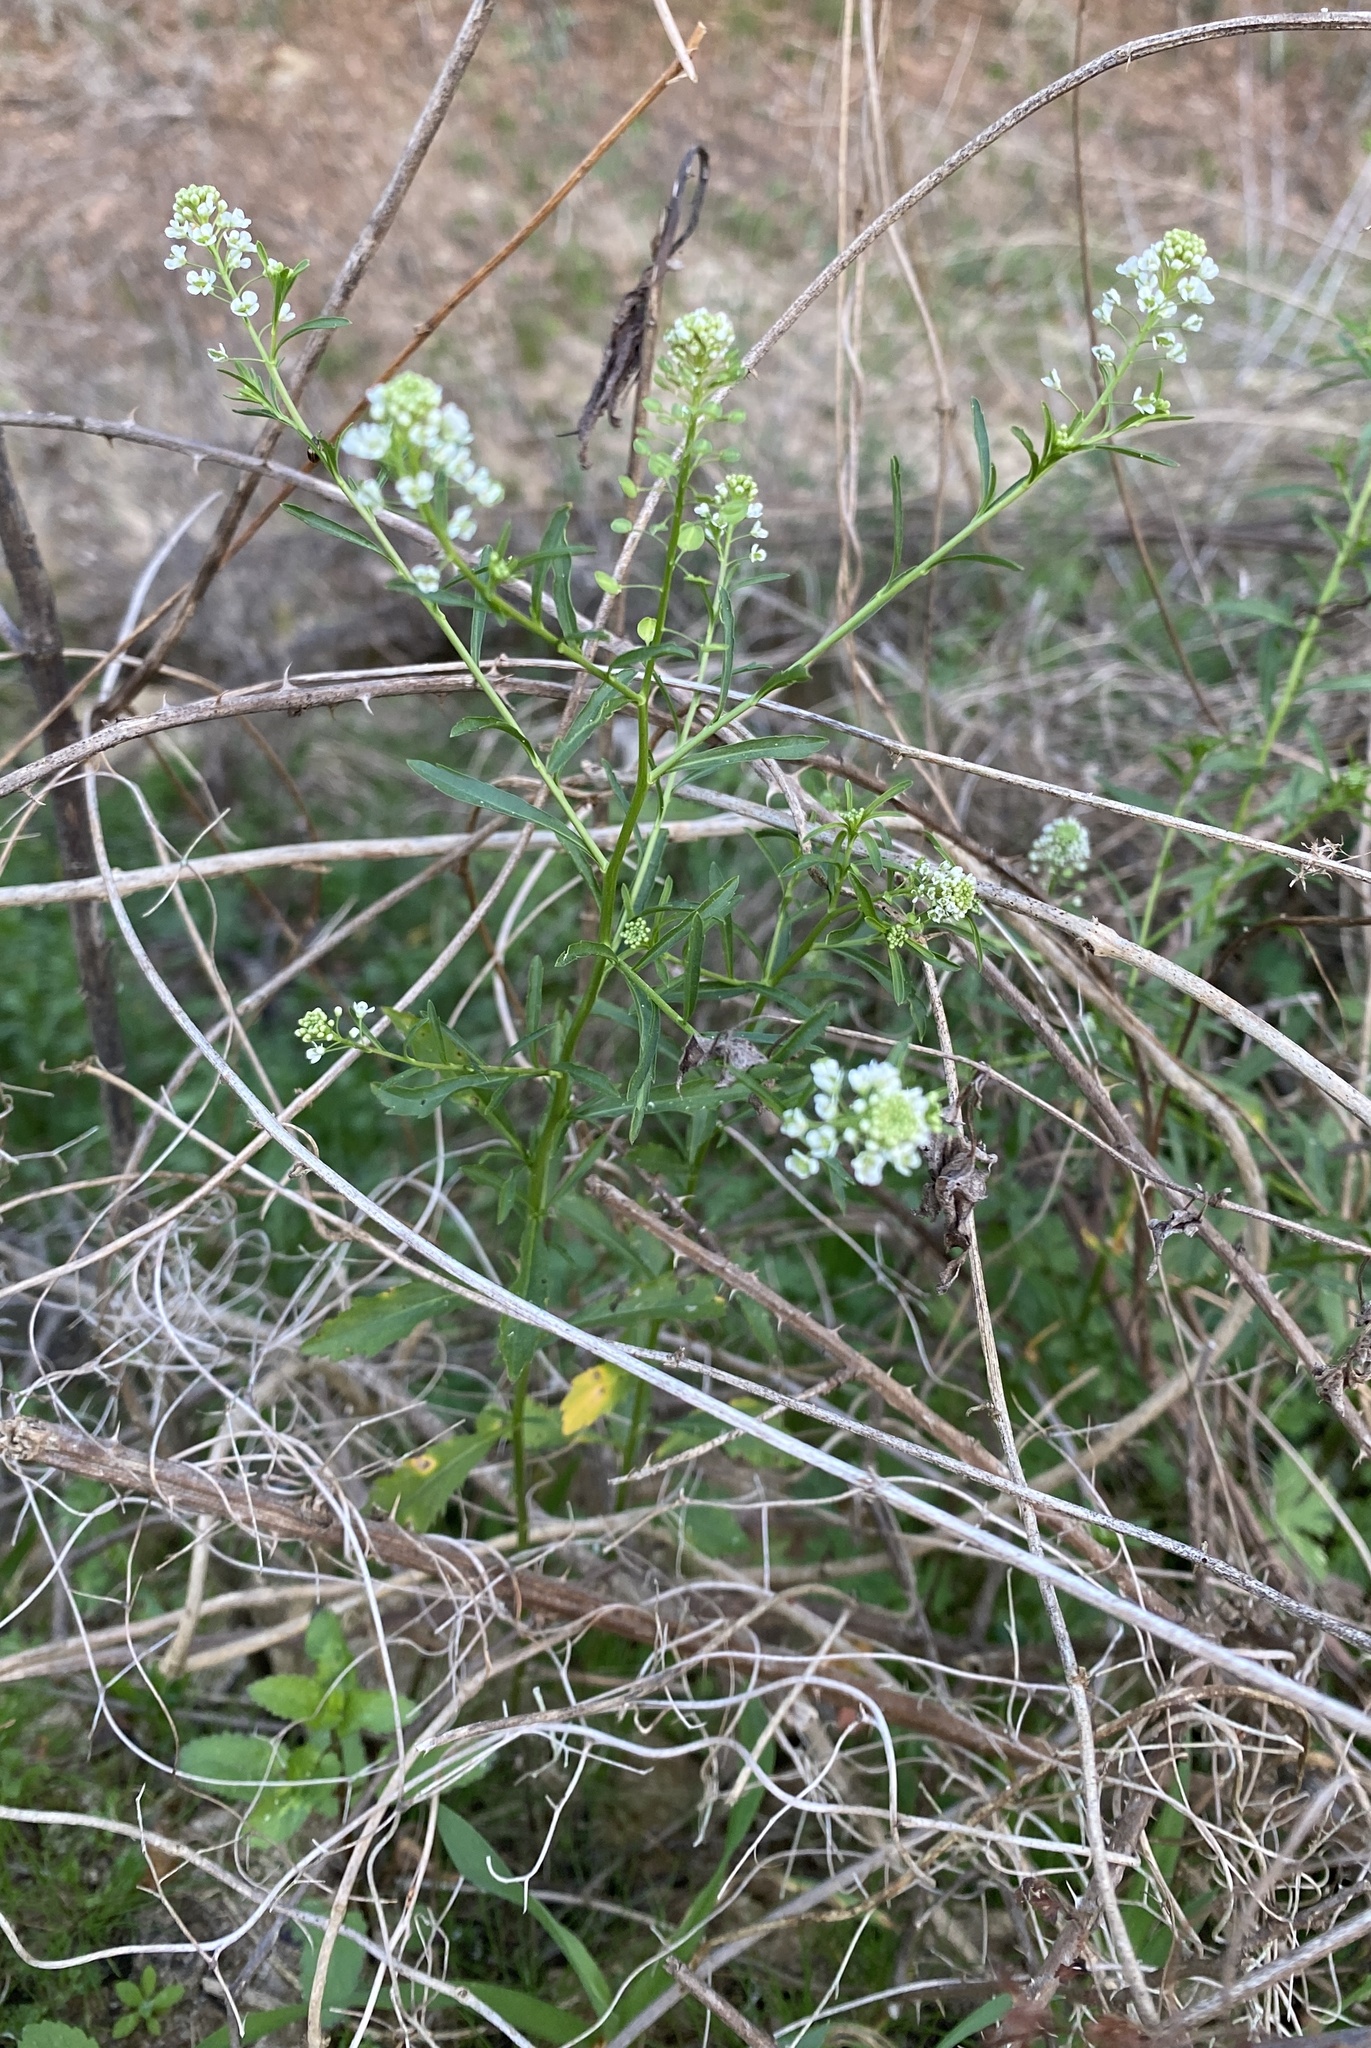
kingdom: Plantae
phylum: Tracheophyta
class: Magnoliopsida
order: Brassicales
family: Brassicaceae
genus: Lepidium
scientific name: Lepidium virginicum
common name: Least pepperwort
